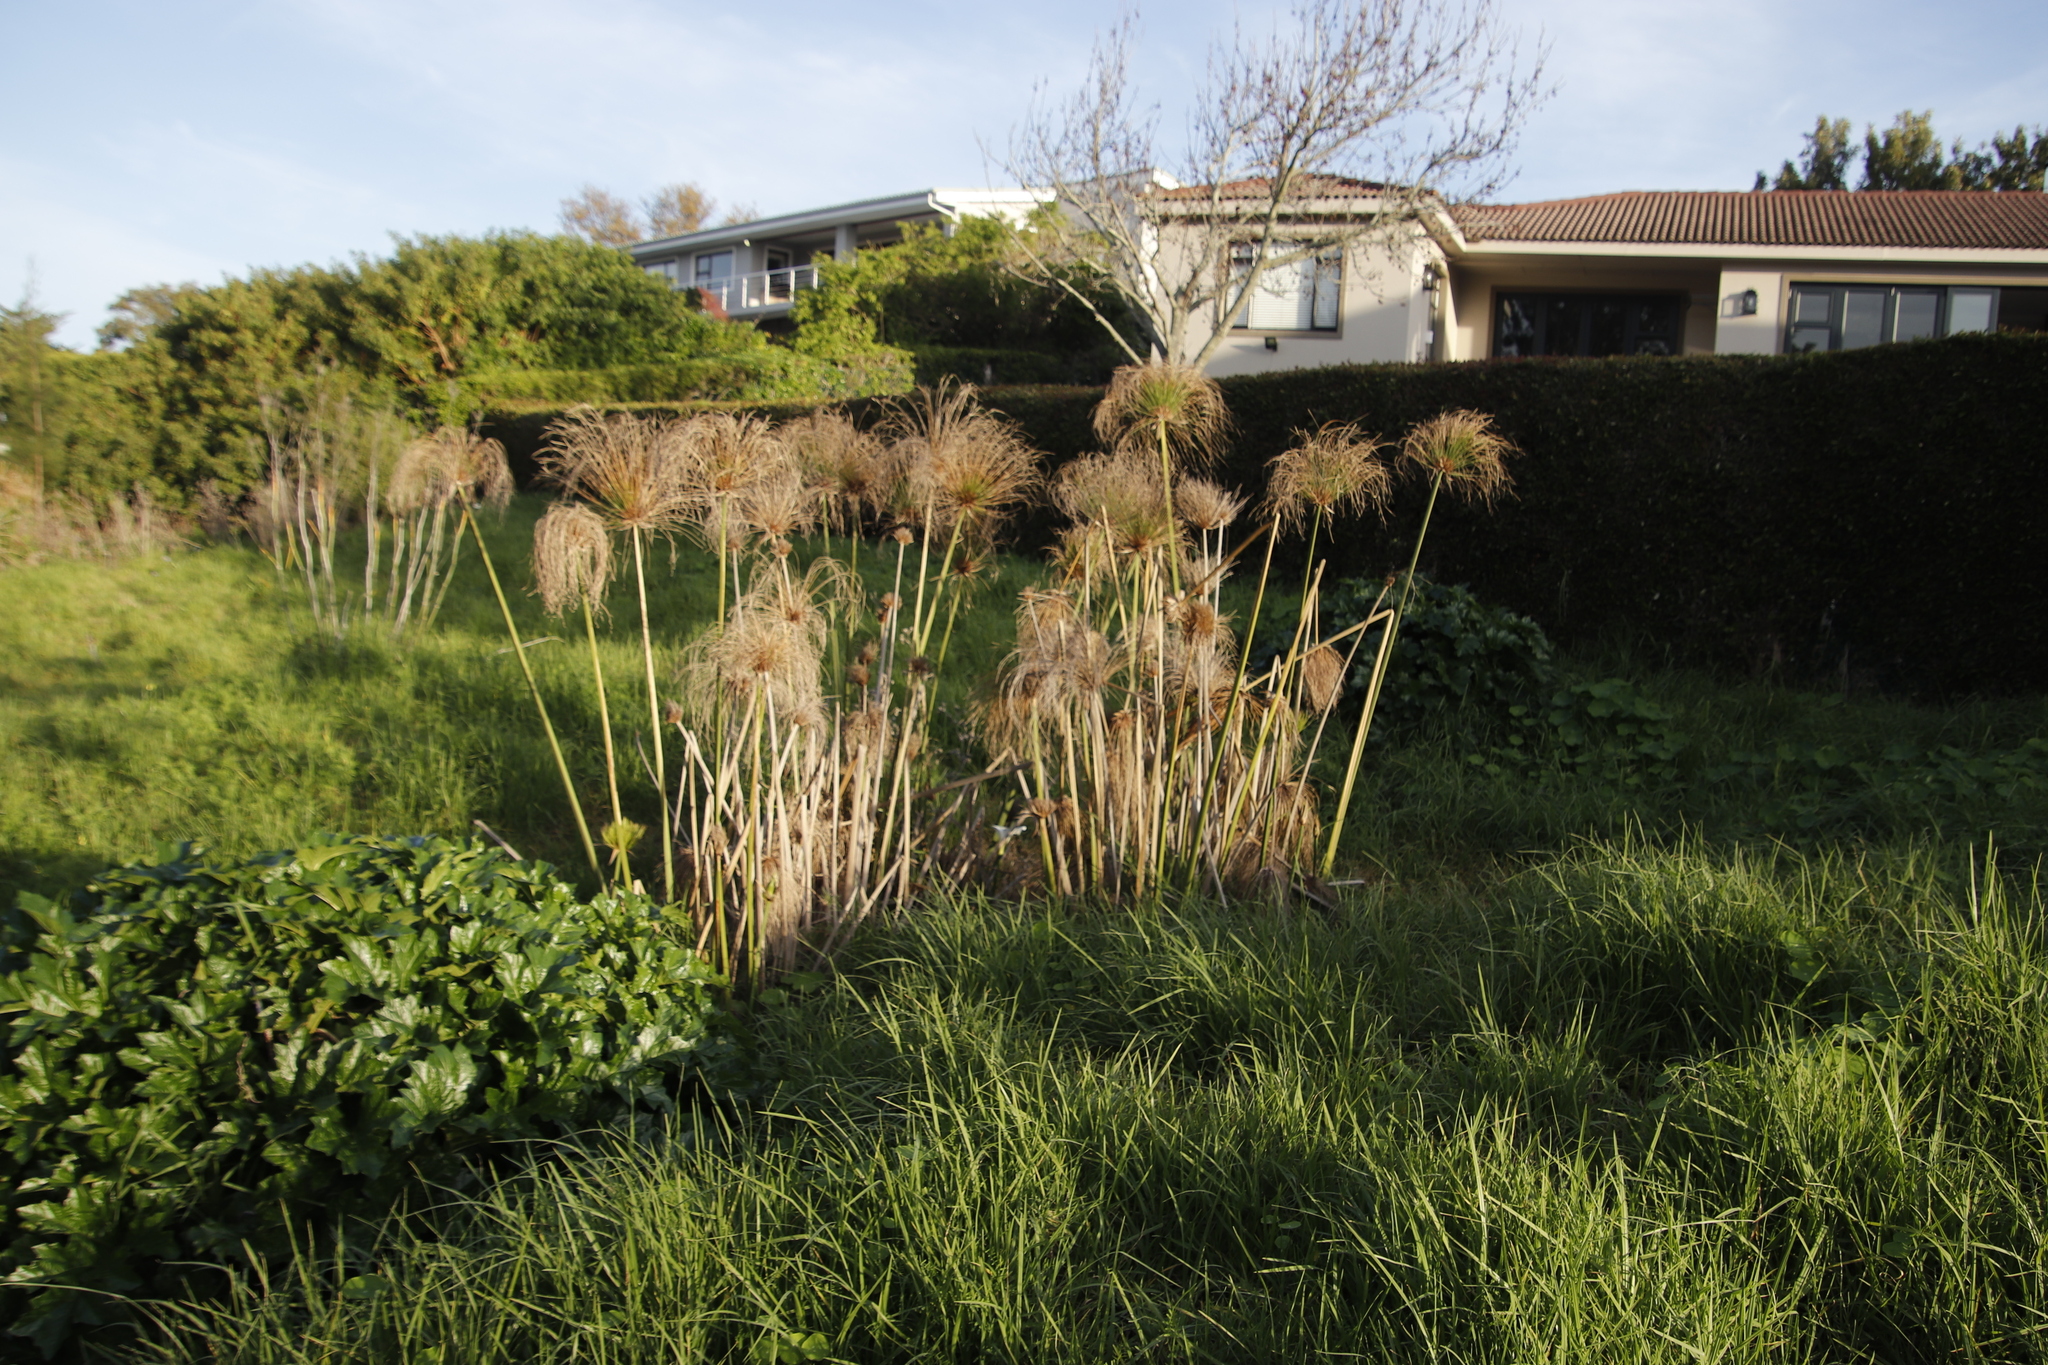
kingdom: Plantae
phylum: Tracheophyta
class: Liliopsida
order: Poales
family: Cyperaceae
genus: Cyperus
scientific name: Cyperus papyrus
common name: Papyrus
